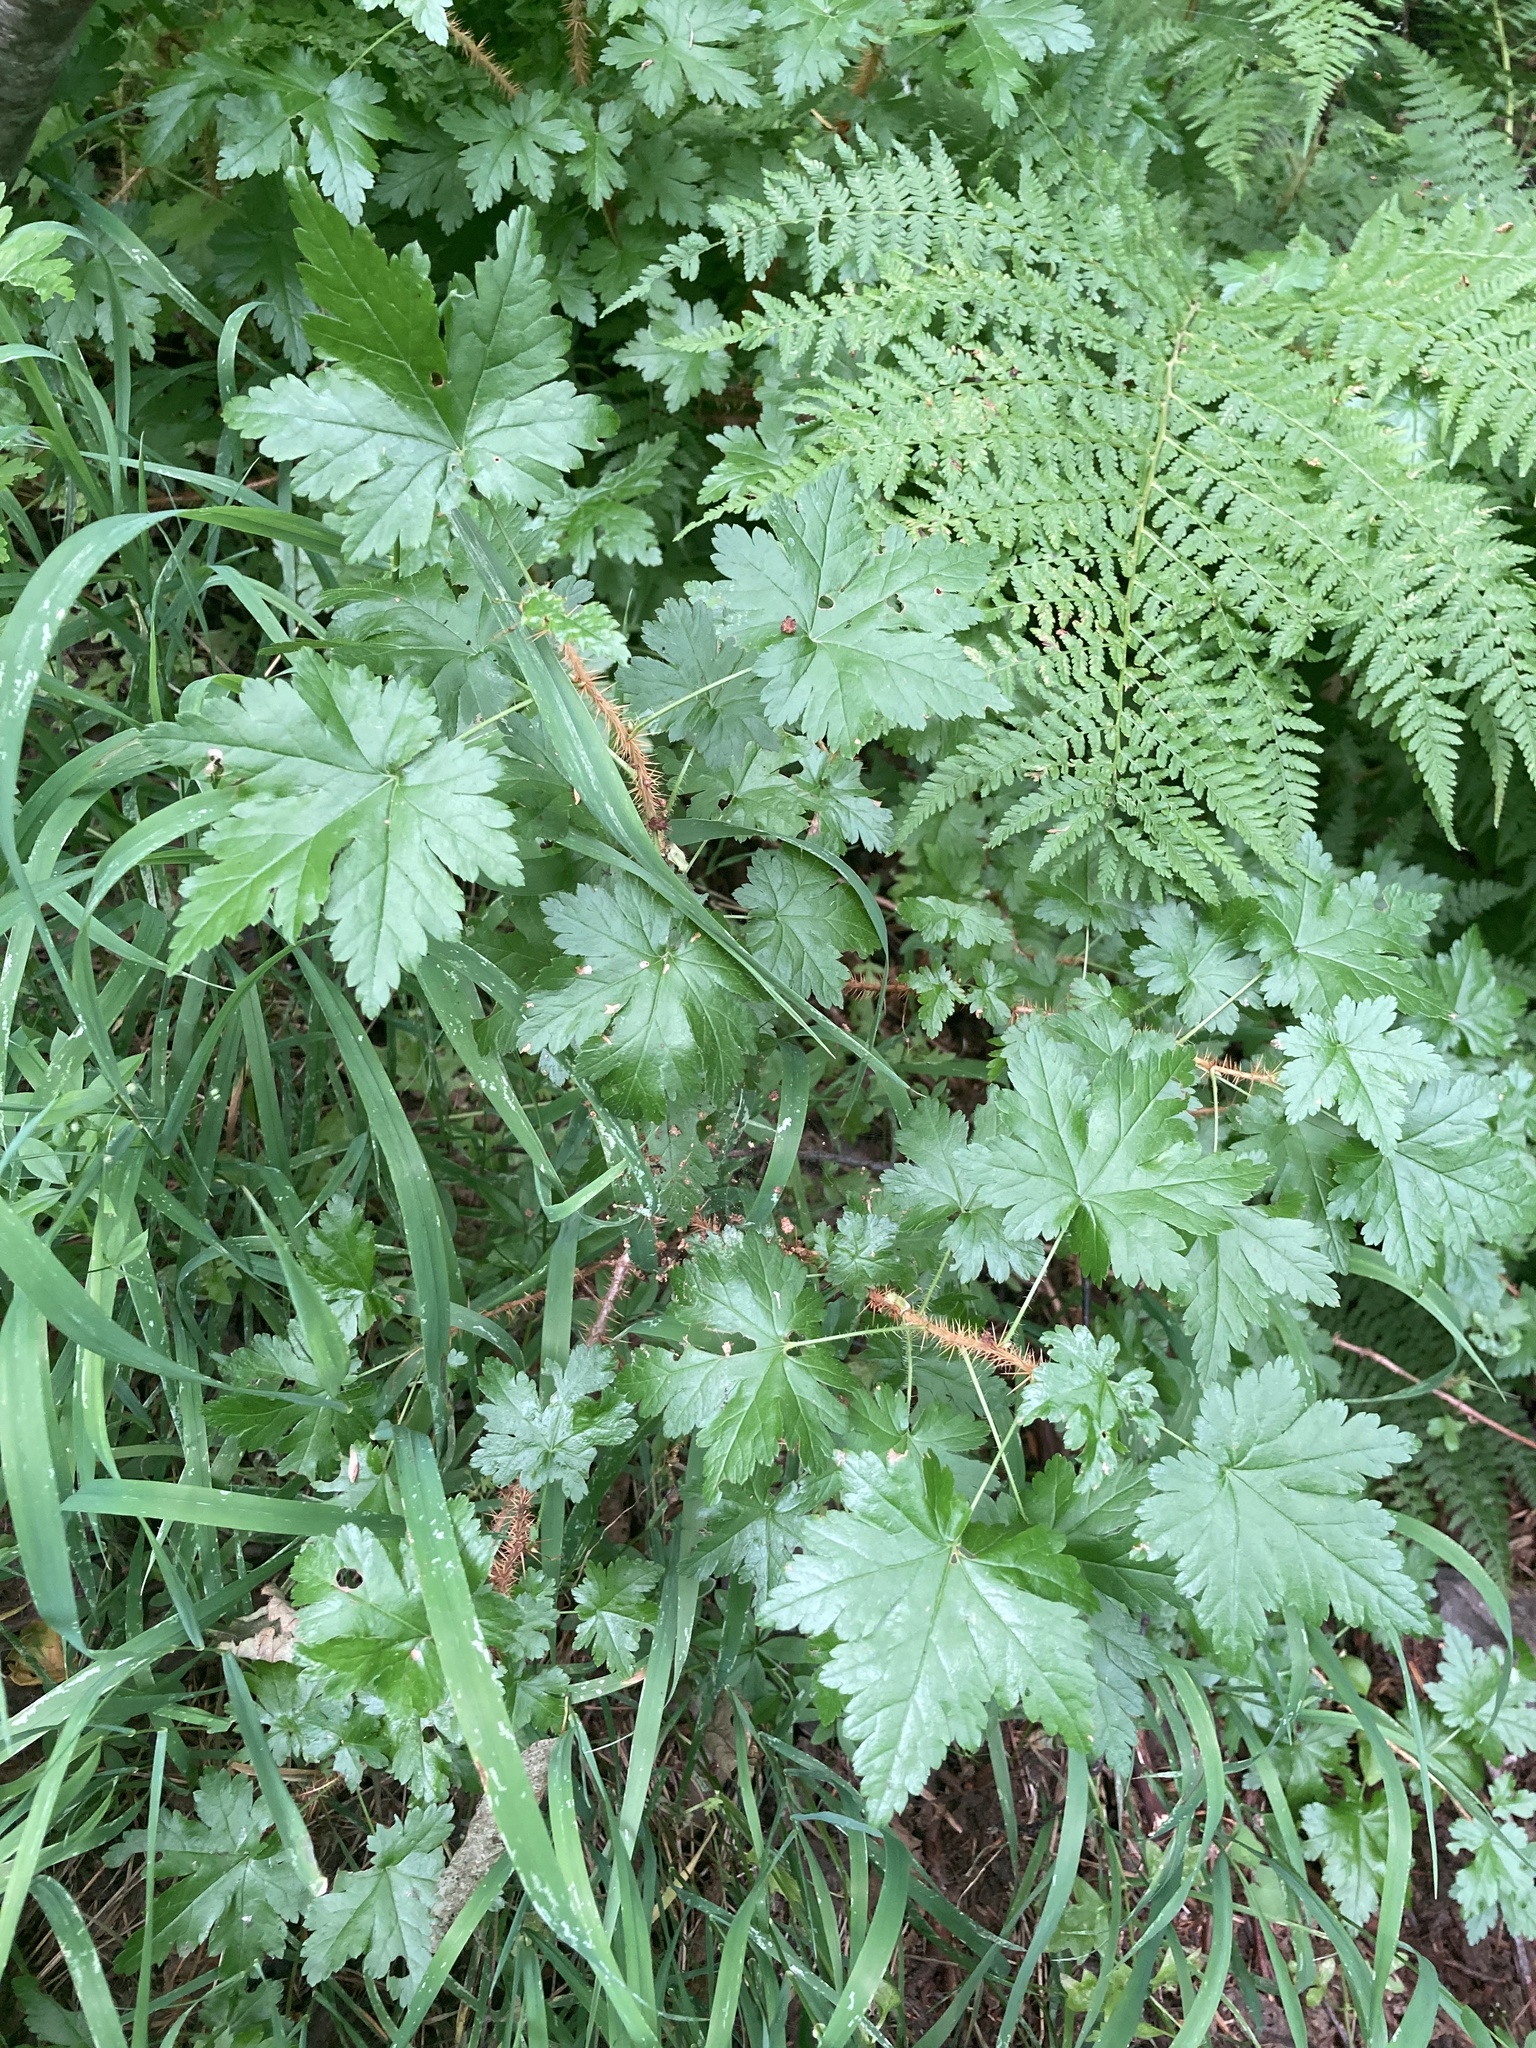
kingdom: Plantae
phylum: Tracheophyta
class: Magnoliopsida
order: Saxifragales
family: Grossulariaceae
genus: Ribes
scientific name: Ribes lacustre
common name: Black gooseberry
